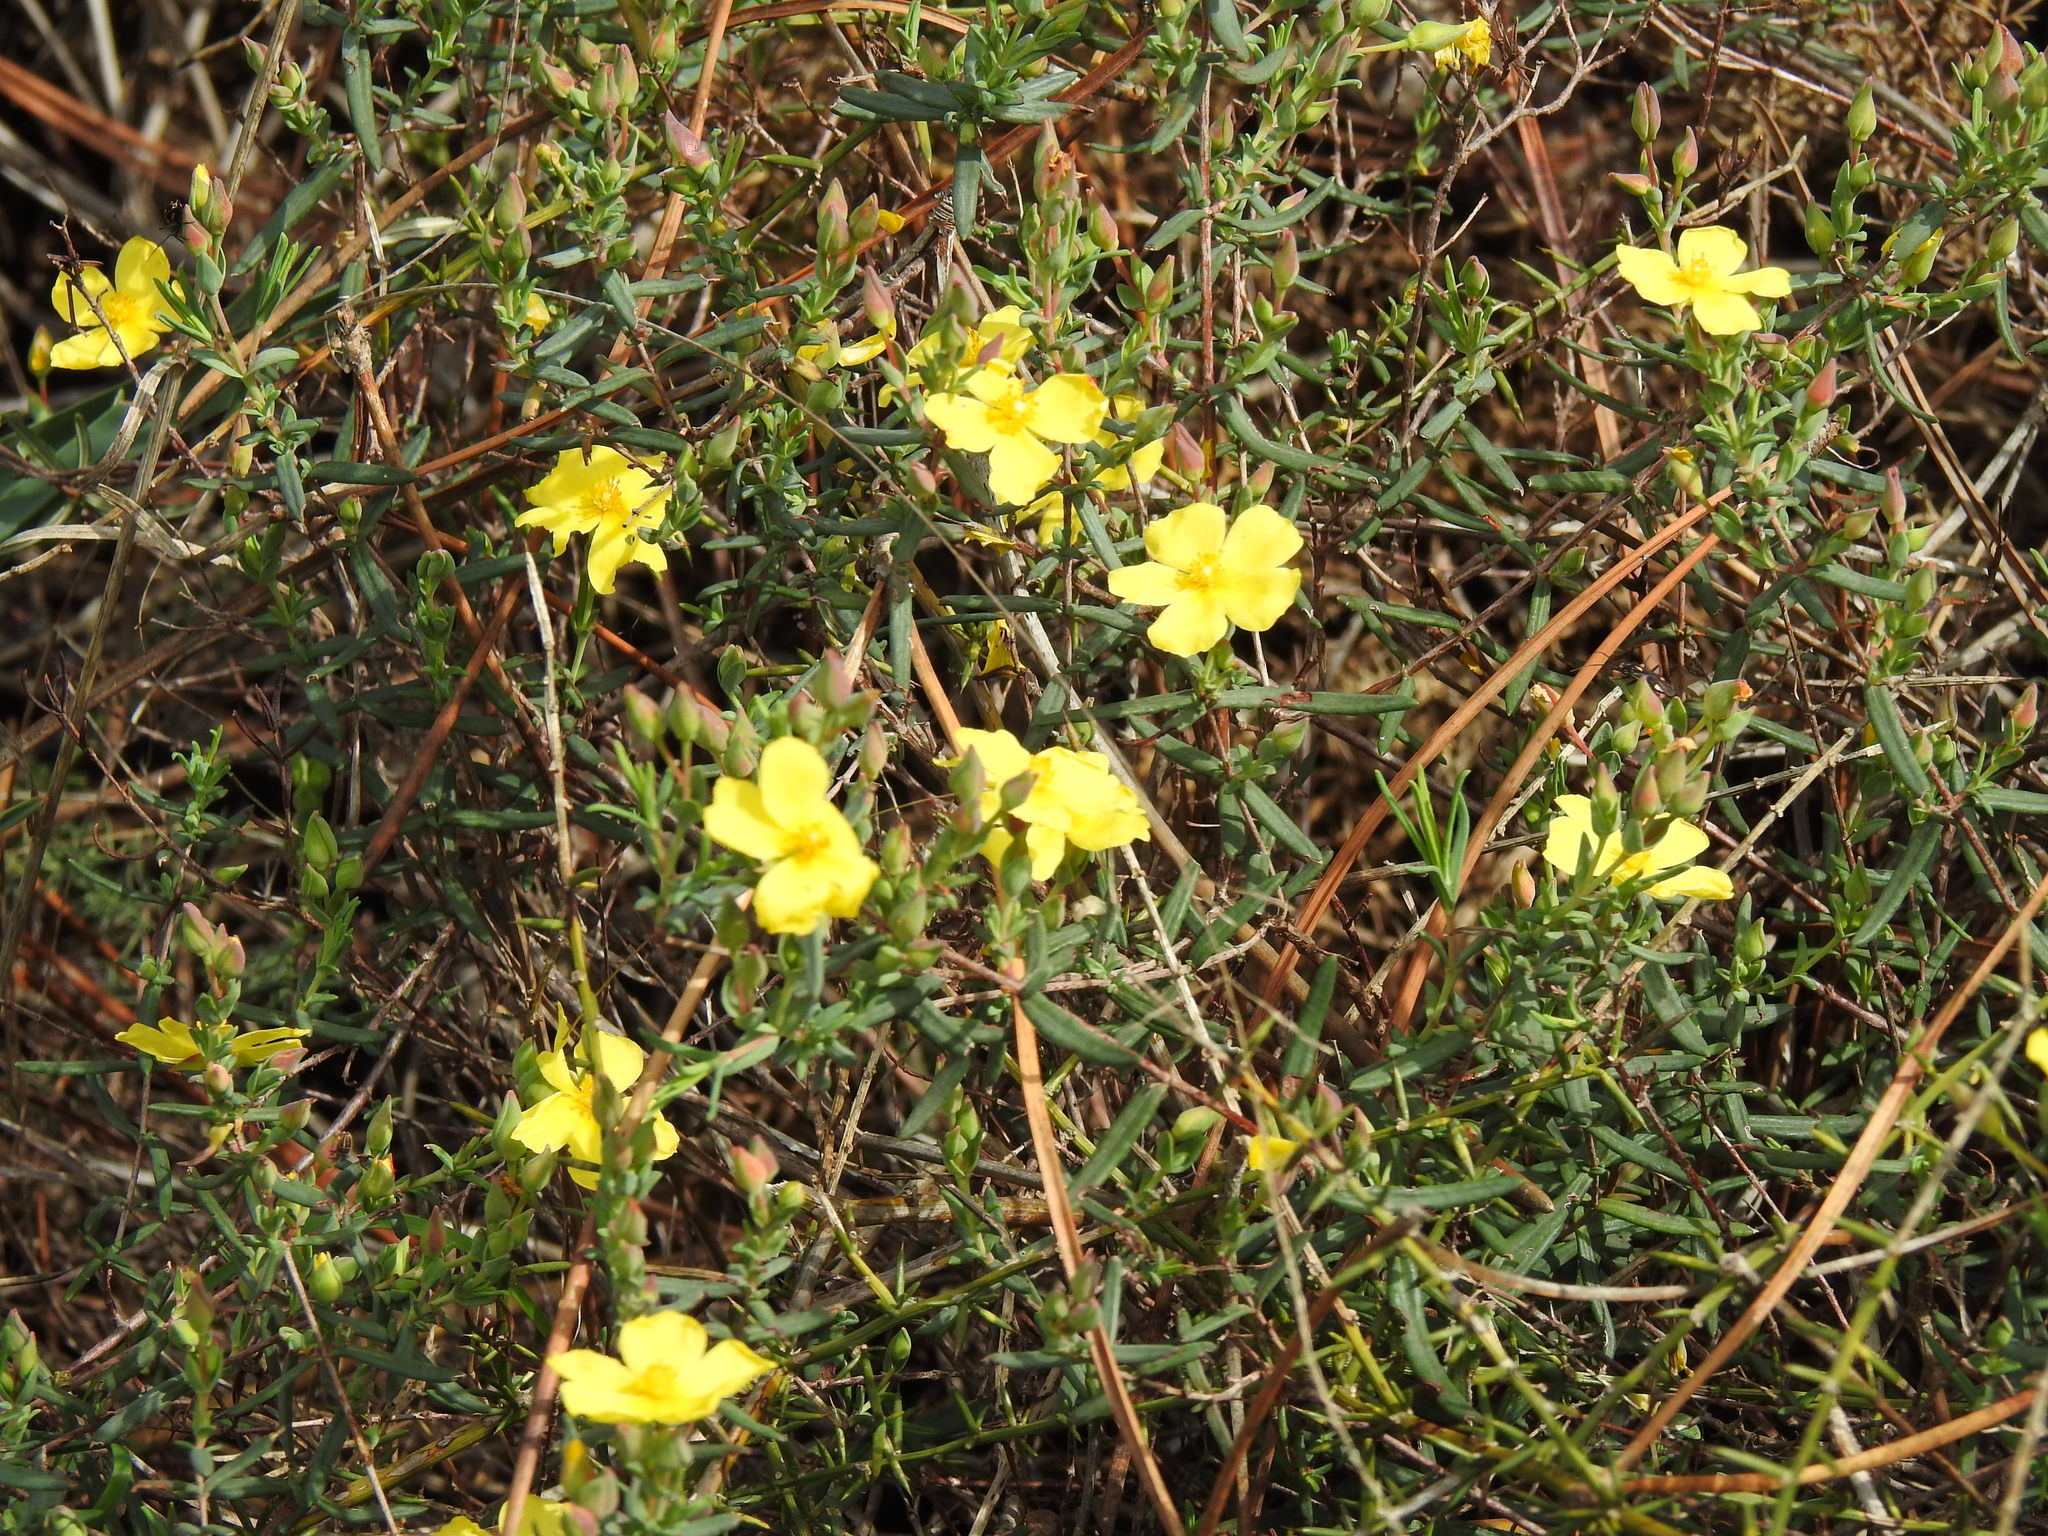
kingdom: Plantae
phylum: Tracheophyta
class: Magnoliopsida
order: Malvales
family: Cistaceae
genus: Halimium
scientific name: Halimium calycinum
